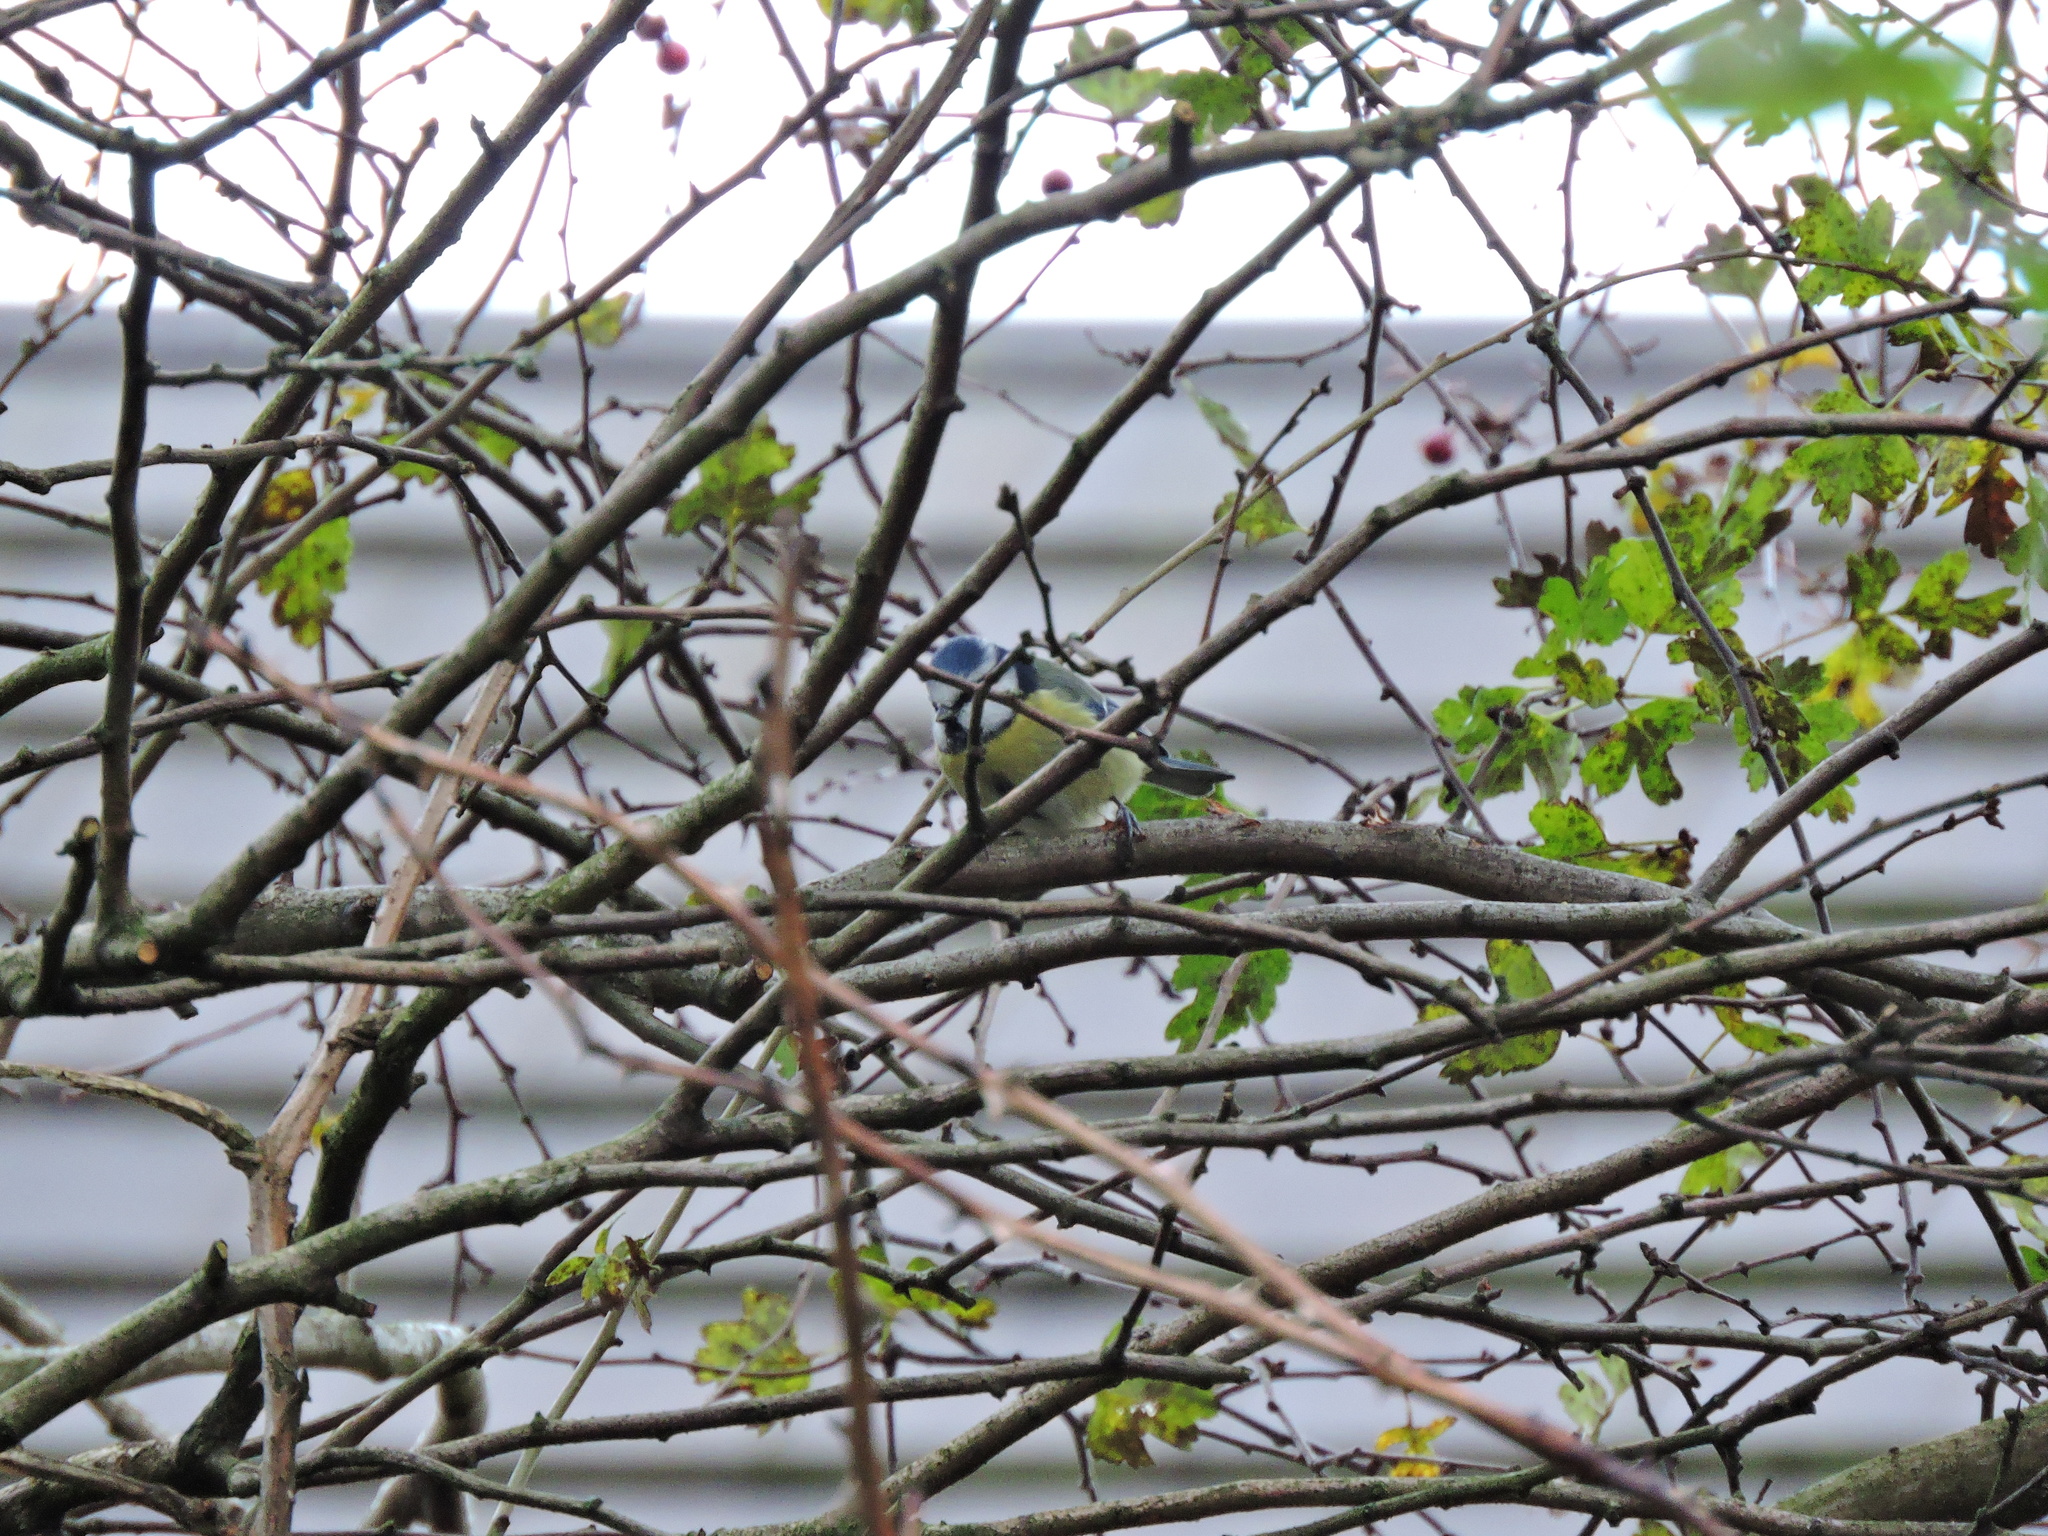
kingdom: Animalia
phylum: Chordata
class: Aves
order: Passeriformes
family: Paridae
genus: Cyanistes
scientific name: Cyanistes caeruleus
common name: Eurasian blue tit
